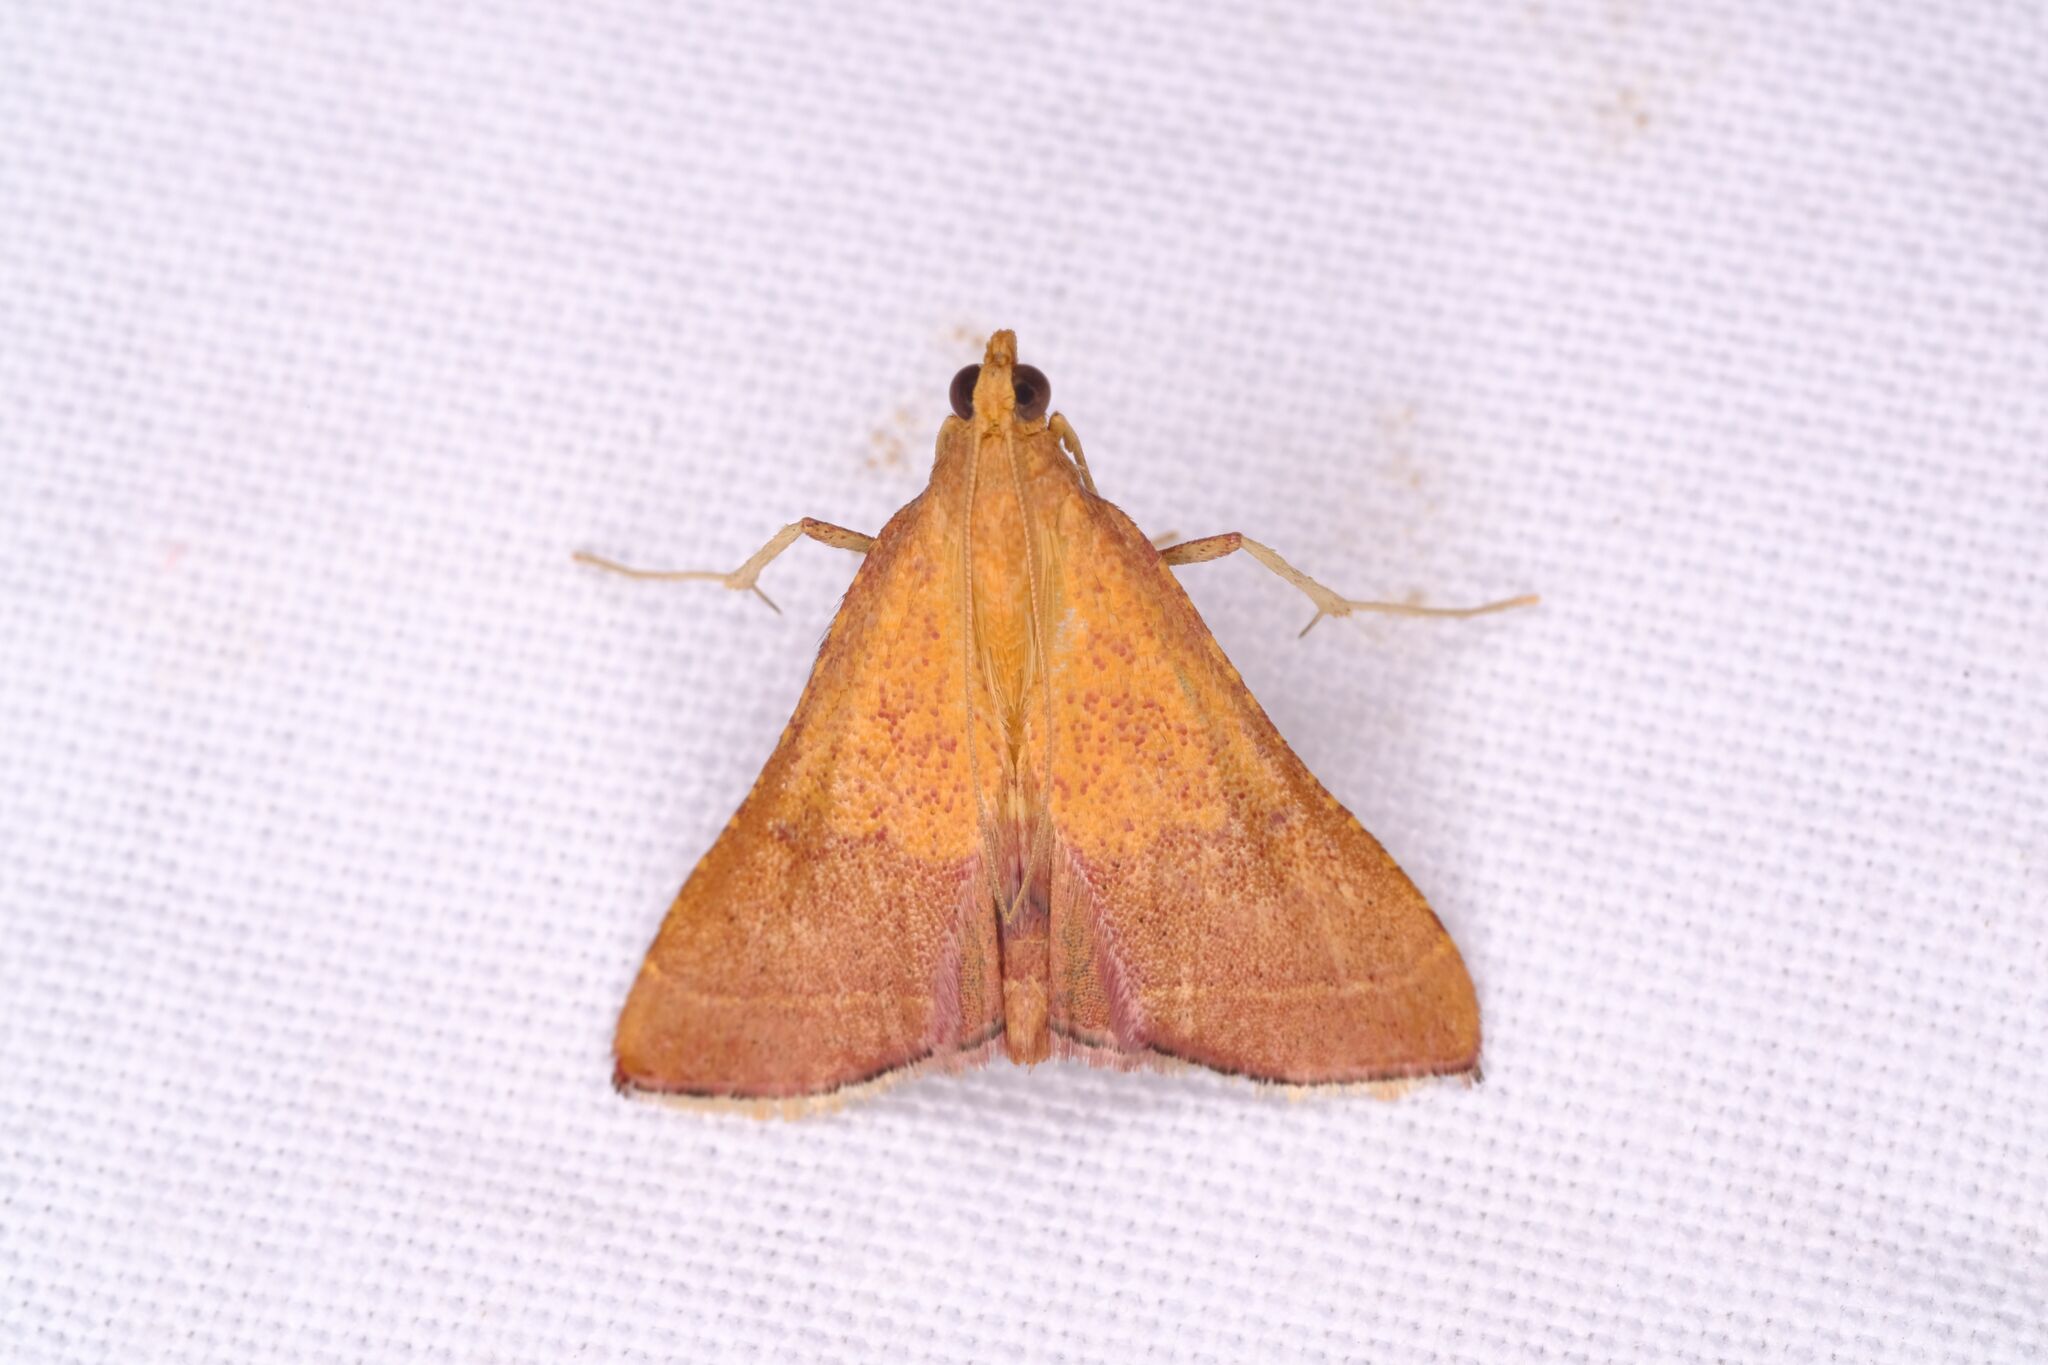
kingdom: Animalia
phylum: Arthropoda
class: Insecta
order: Lepidoptera
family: Pyralidae
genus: Endotricha
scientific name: Endotricha pyrosalis
